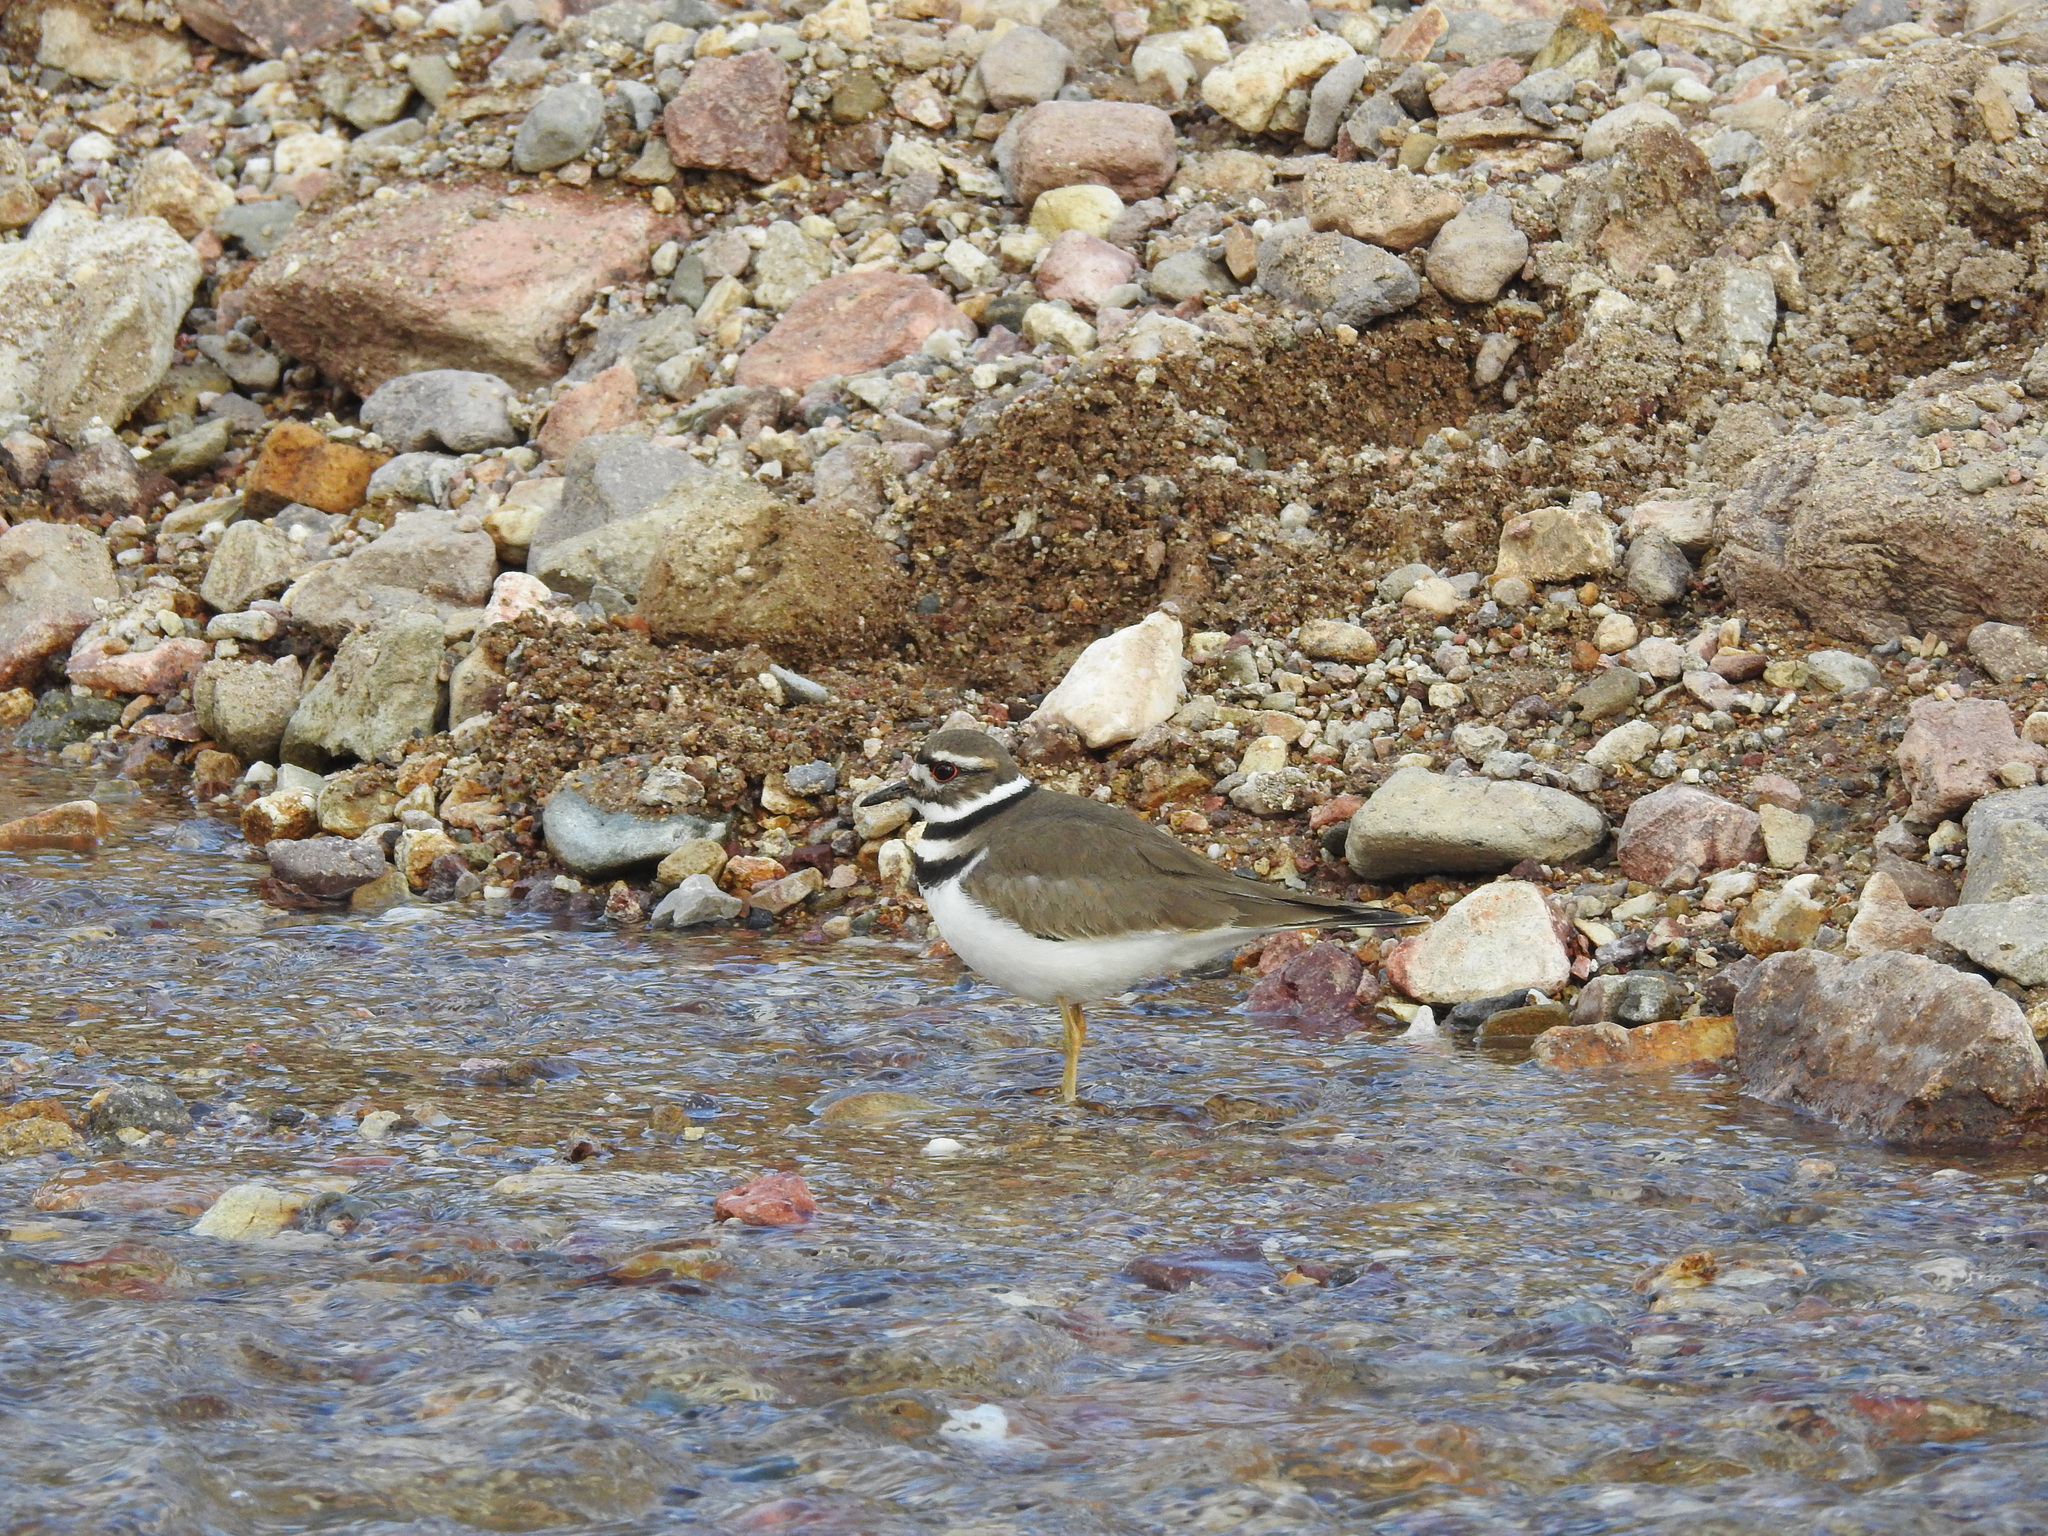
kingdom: Animalia
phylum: Chordata
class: Aves
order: Charadriiformes
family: Charadriidae
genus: Charadrius
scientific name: Charadrius vociferus
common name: Killdeer
